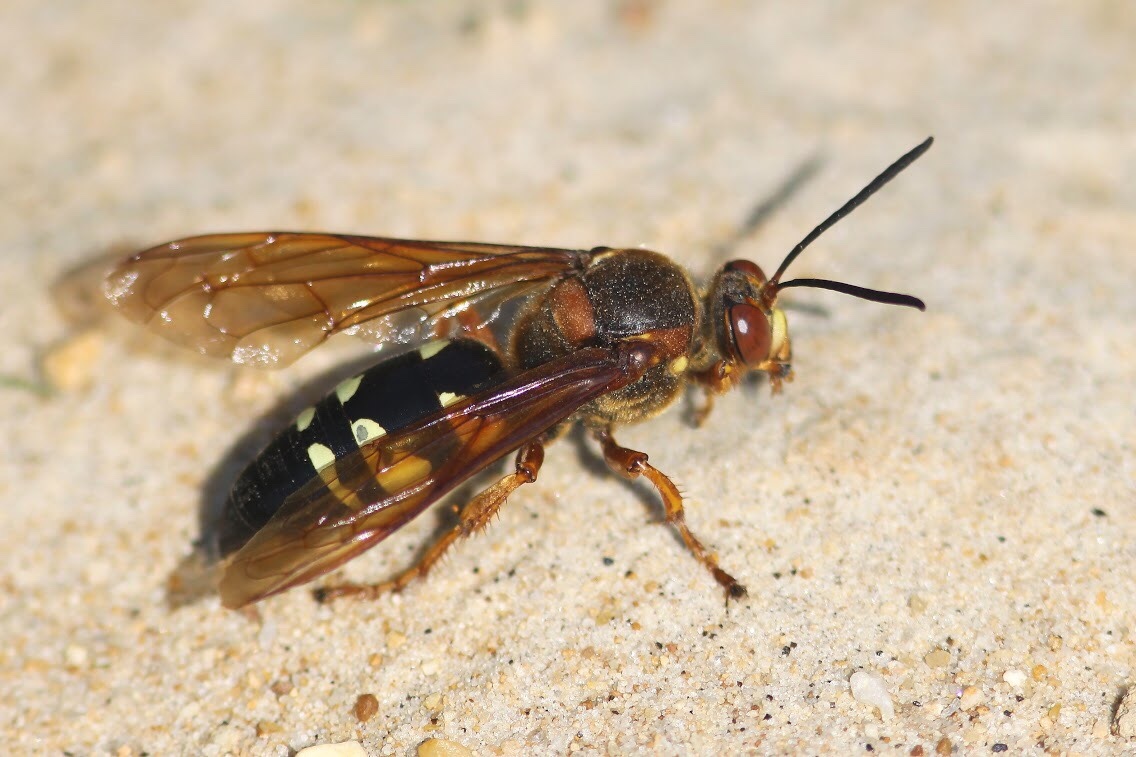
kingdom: Animalia
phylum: Arthropoda
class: Insecta
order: Hymenoptera
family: Crabronidae
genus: Sphecius
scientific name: Sphecius speciosus
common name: Cicada killer
